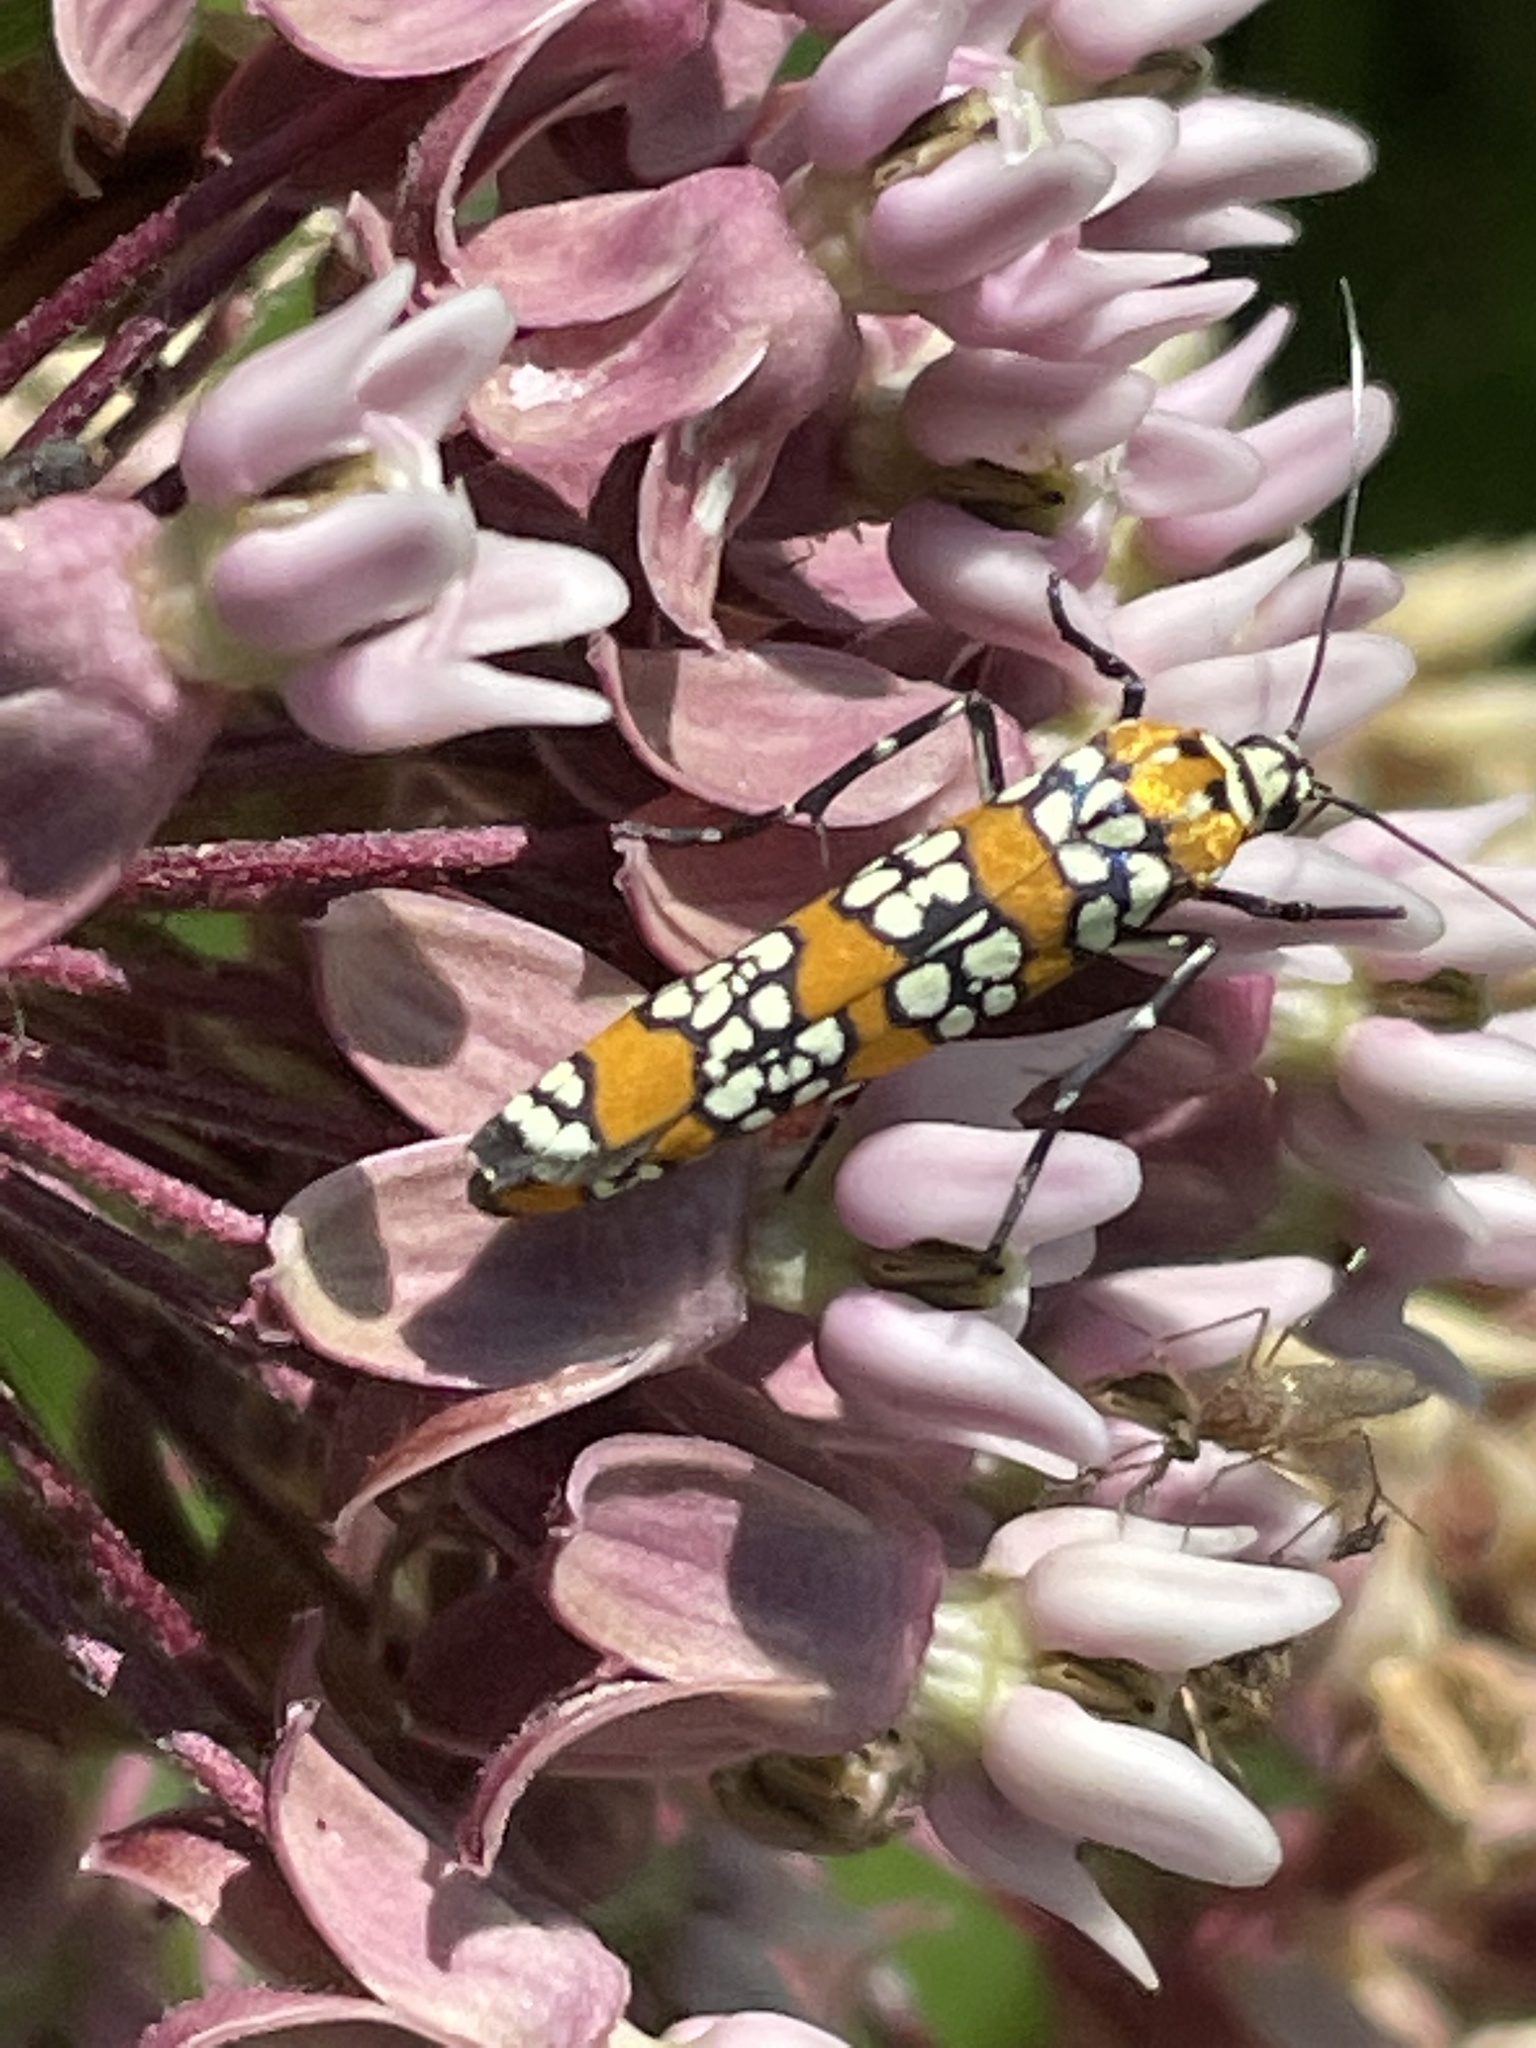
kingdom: Animalia
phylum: Arthropoda
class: Insecta
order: Lepidoptera
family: Attevidae
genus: Atteva
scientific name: Atteva punctella
